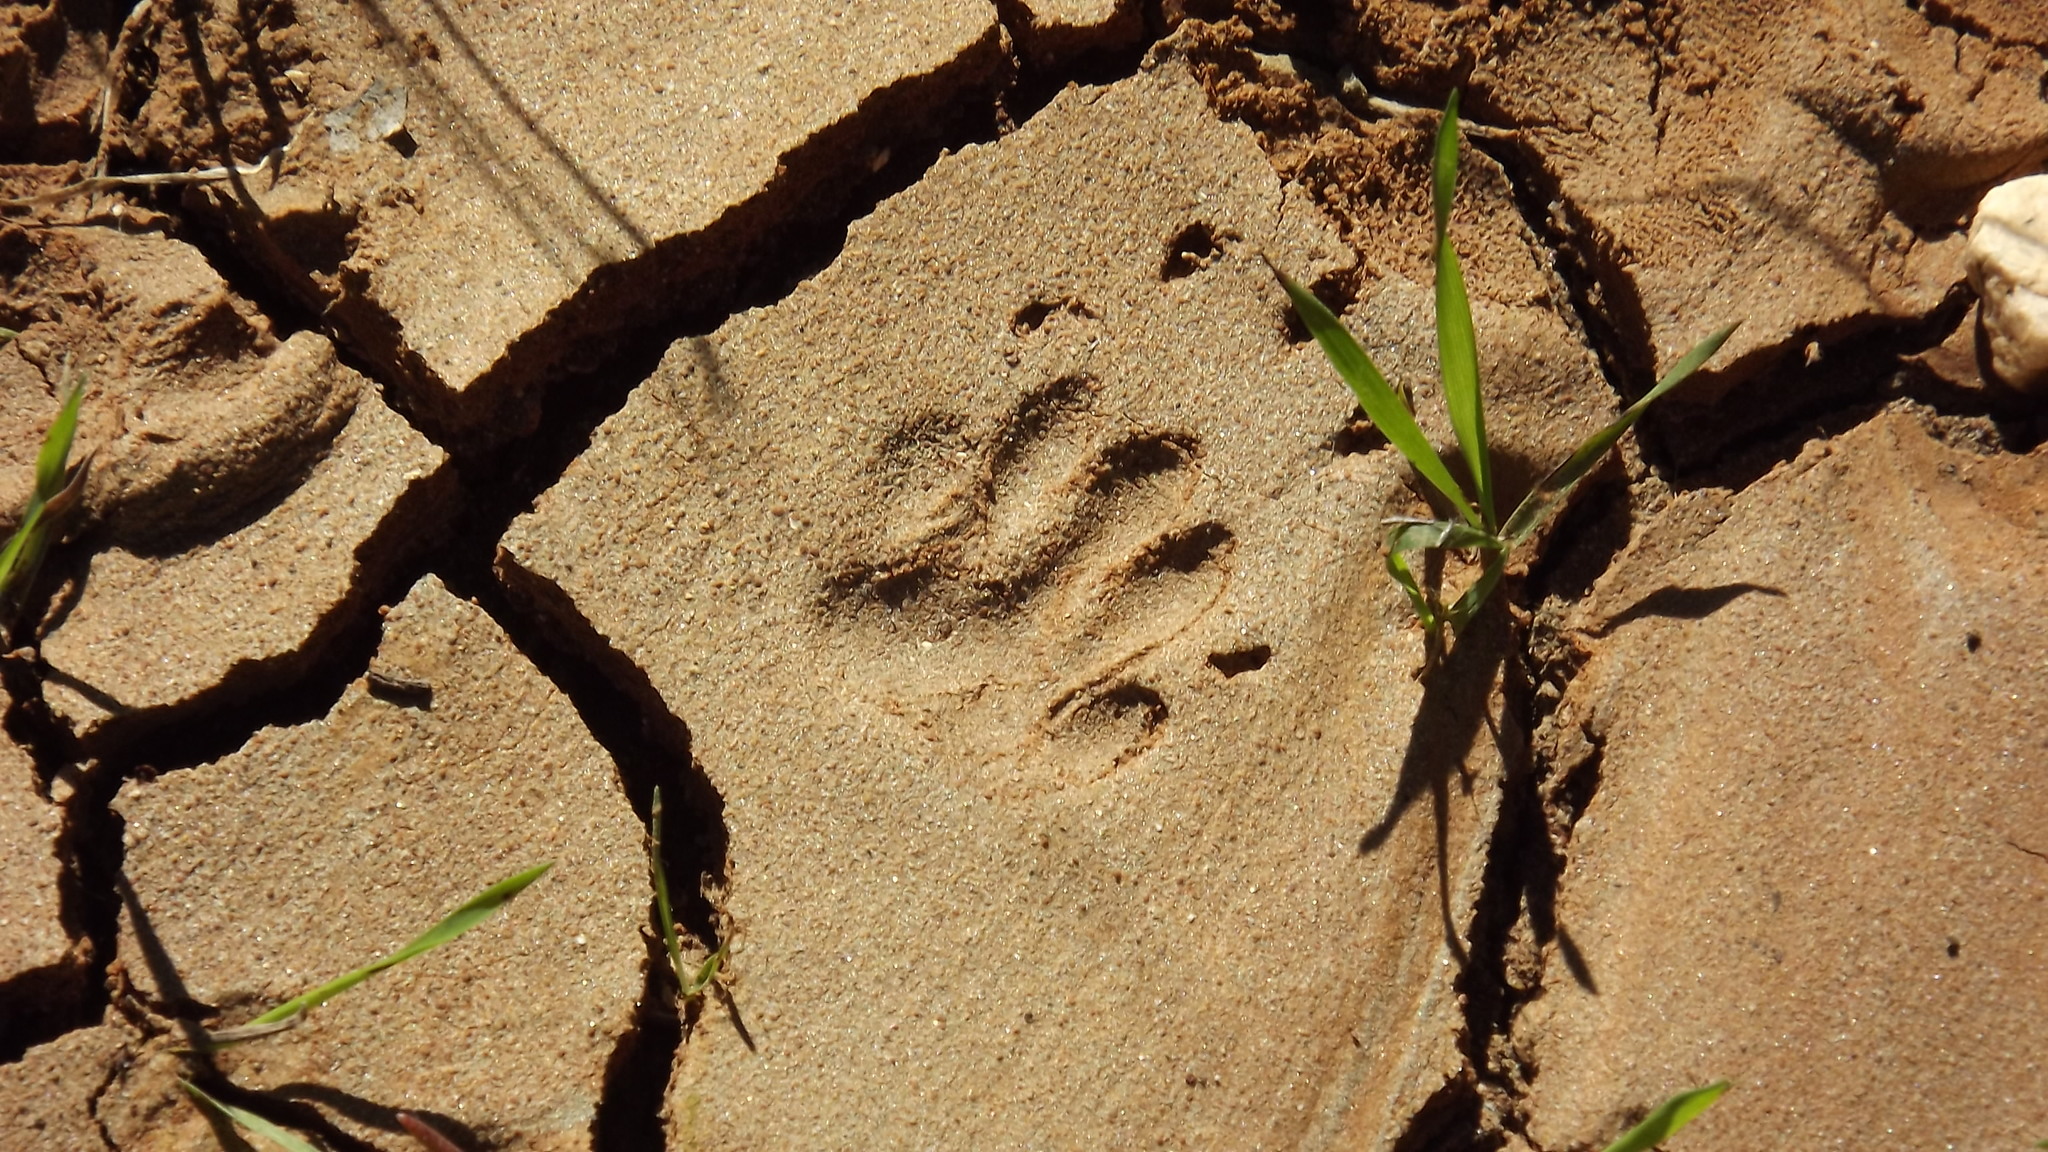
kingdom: Animalia
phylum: Chordata
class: Mammalia
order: Carnivora
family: Mephitidae
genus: Mephitis
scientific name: Mephitis mephitis
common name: Striped skunk
